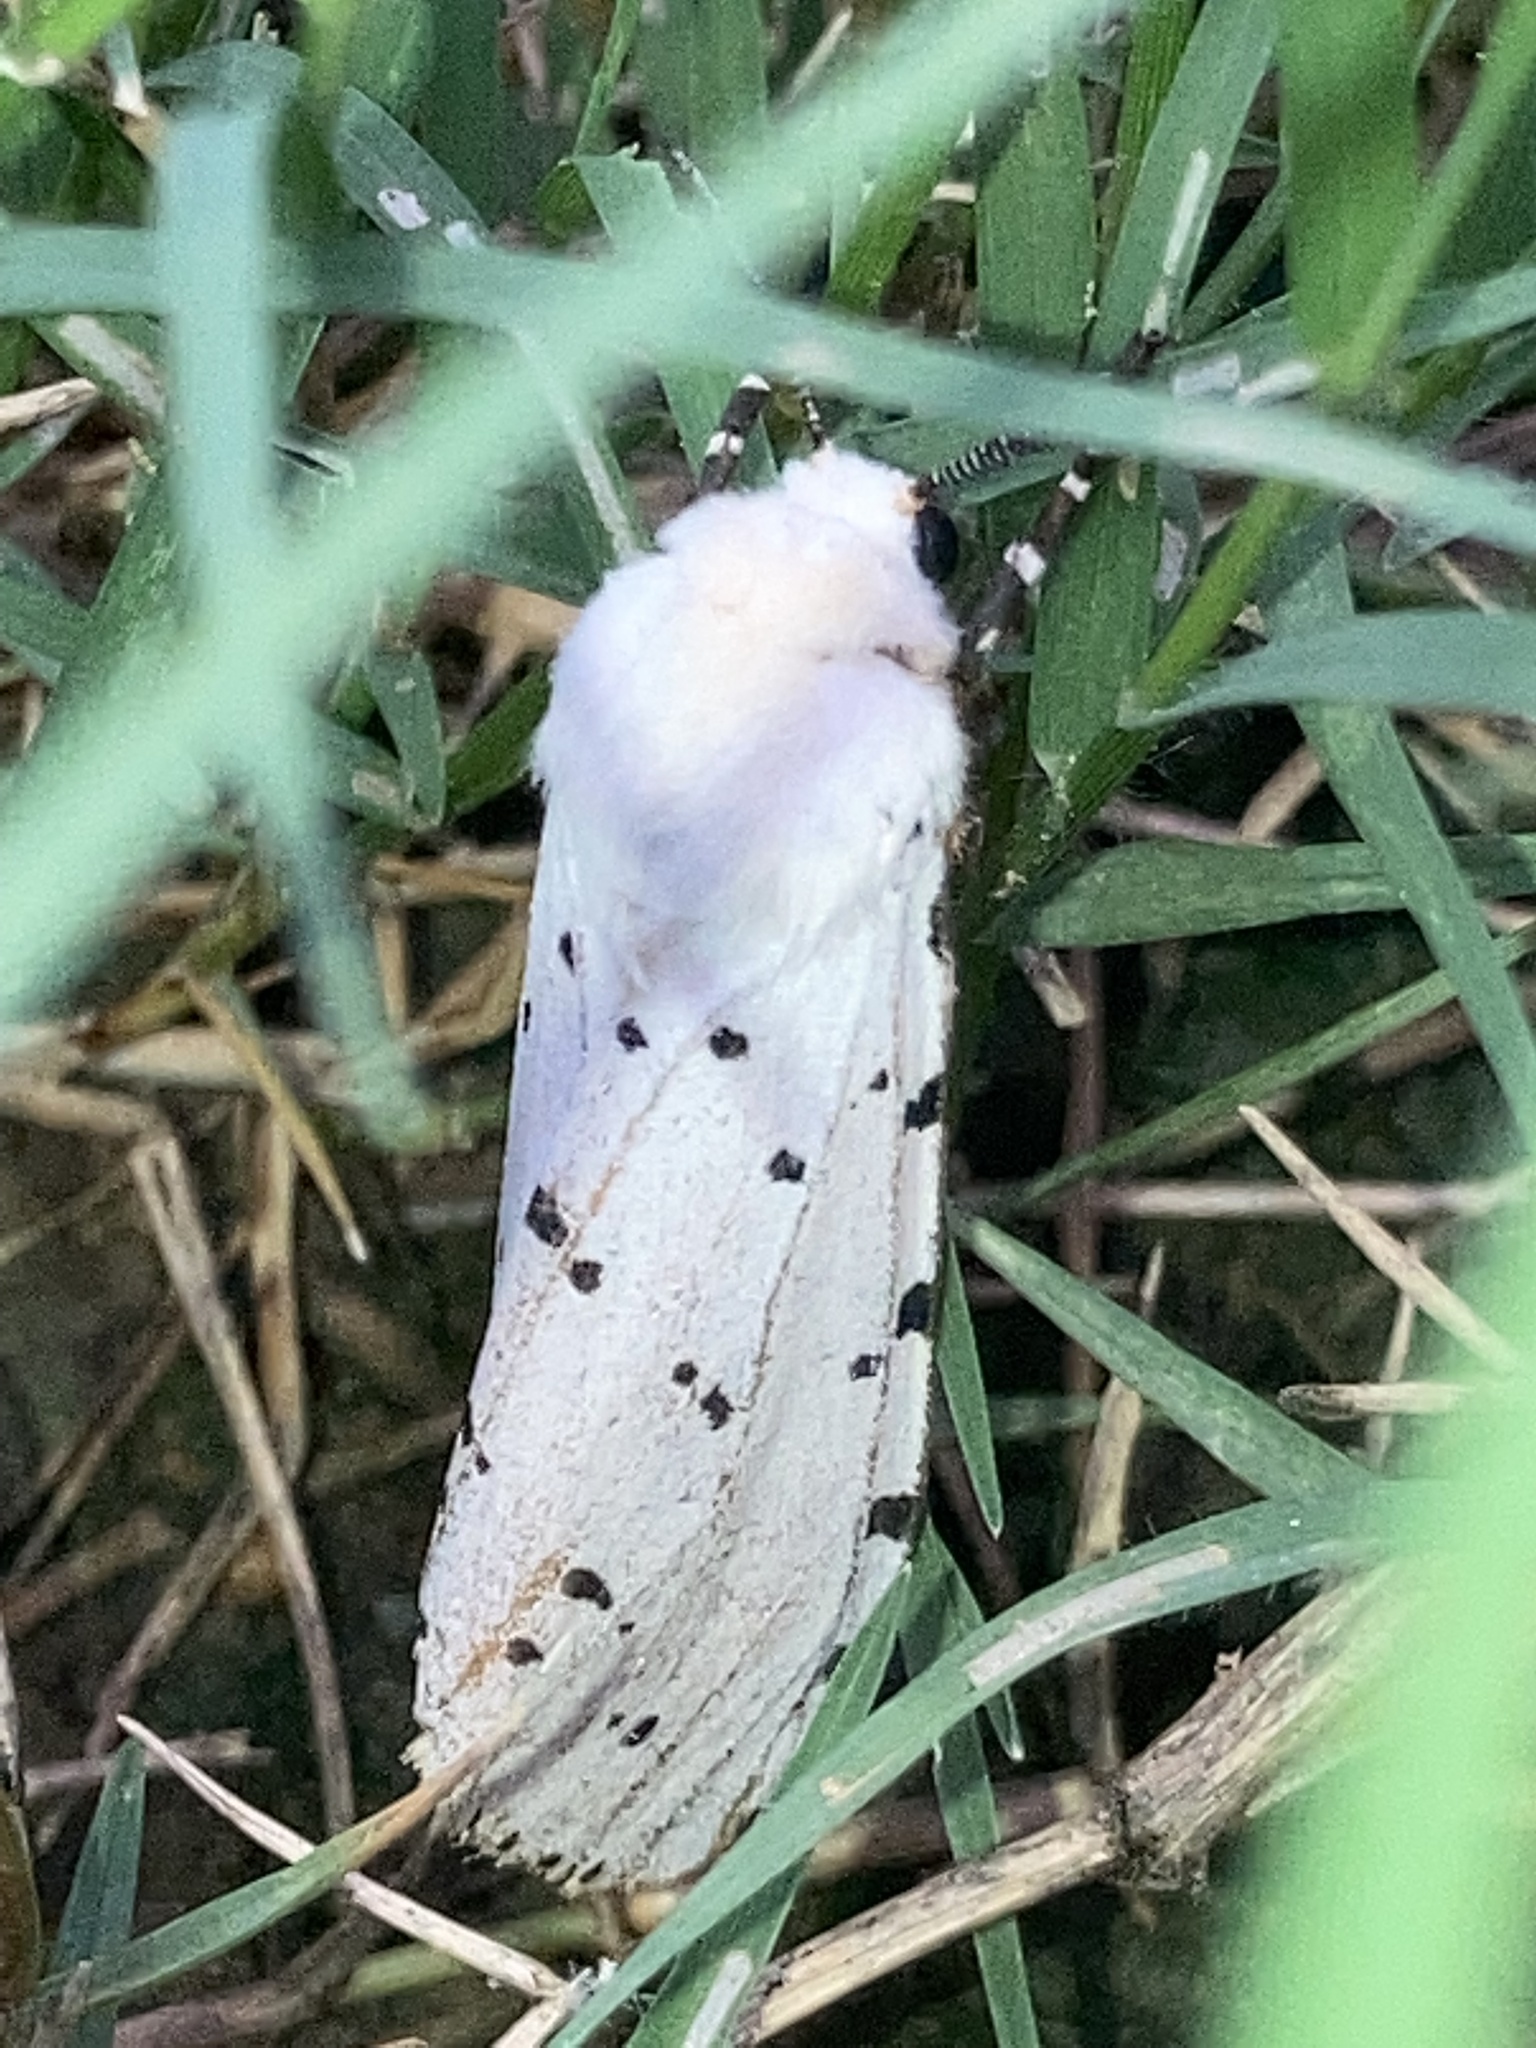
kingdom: Animalia
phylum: Arthropoda
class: Insecta
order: Lepidoptera
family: Erebidae
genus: Estigmene
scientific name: Estigmene acrea
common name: Salt marsh moth
